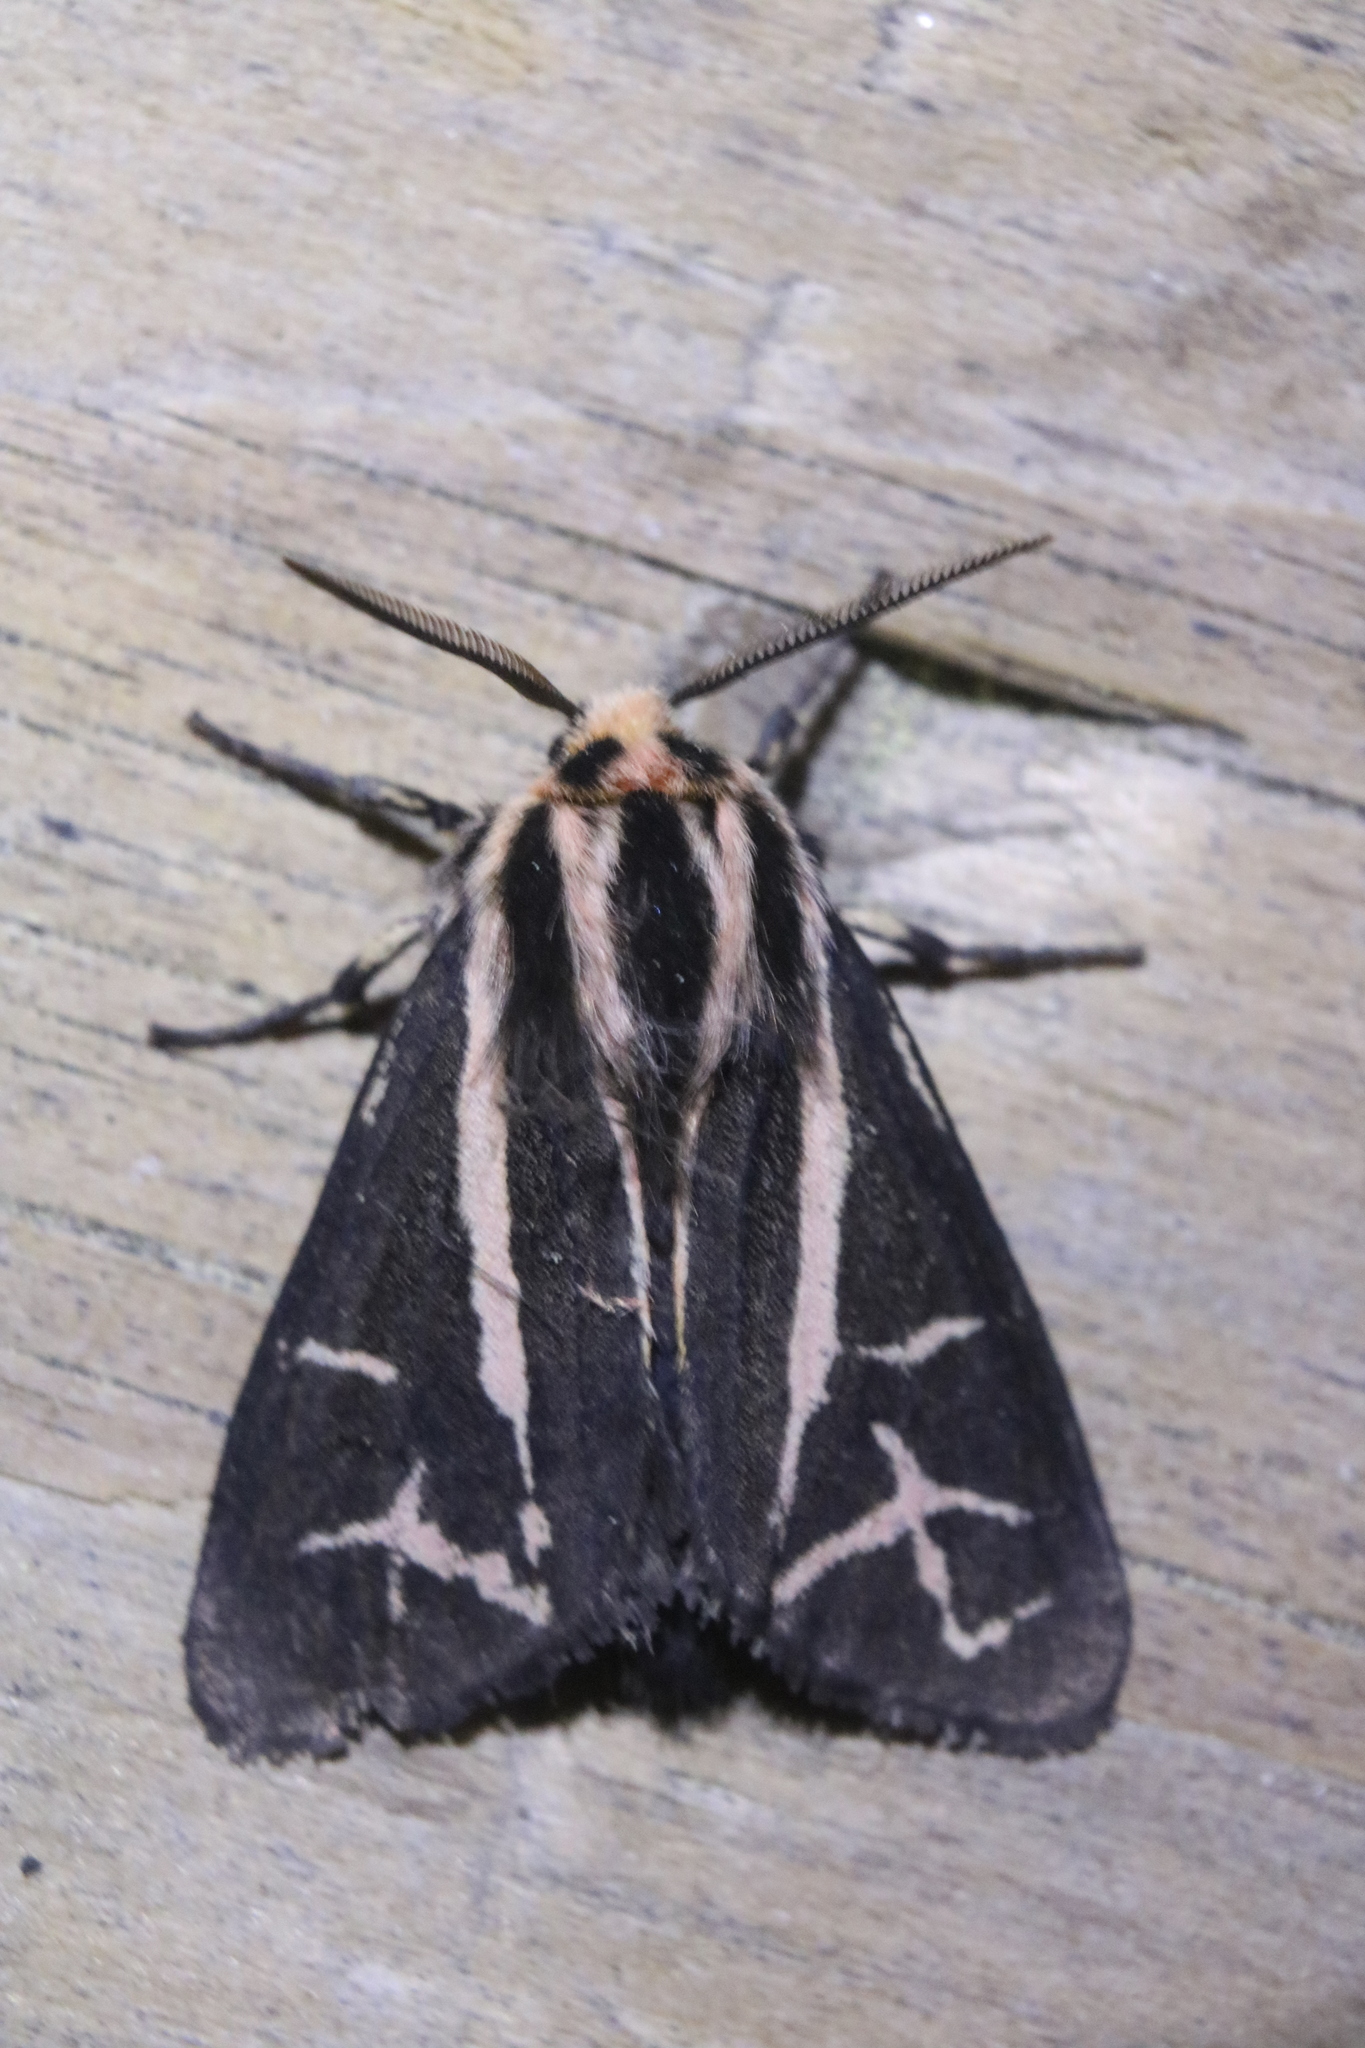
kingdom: Animalia
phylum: Arthropoda
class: Insecta
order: Lepidoptera
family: Erebidae
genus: Apantesis
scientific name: Apantesis
